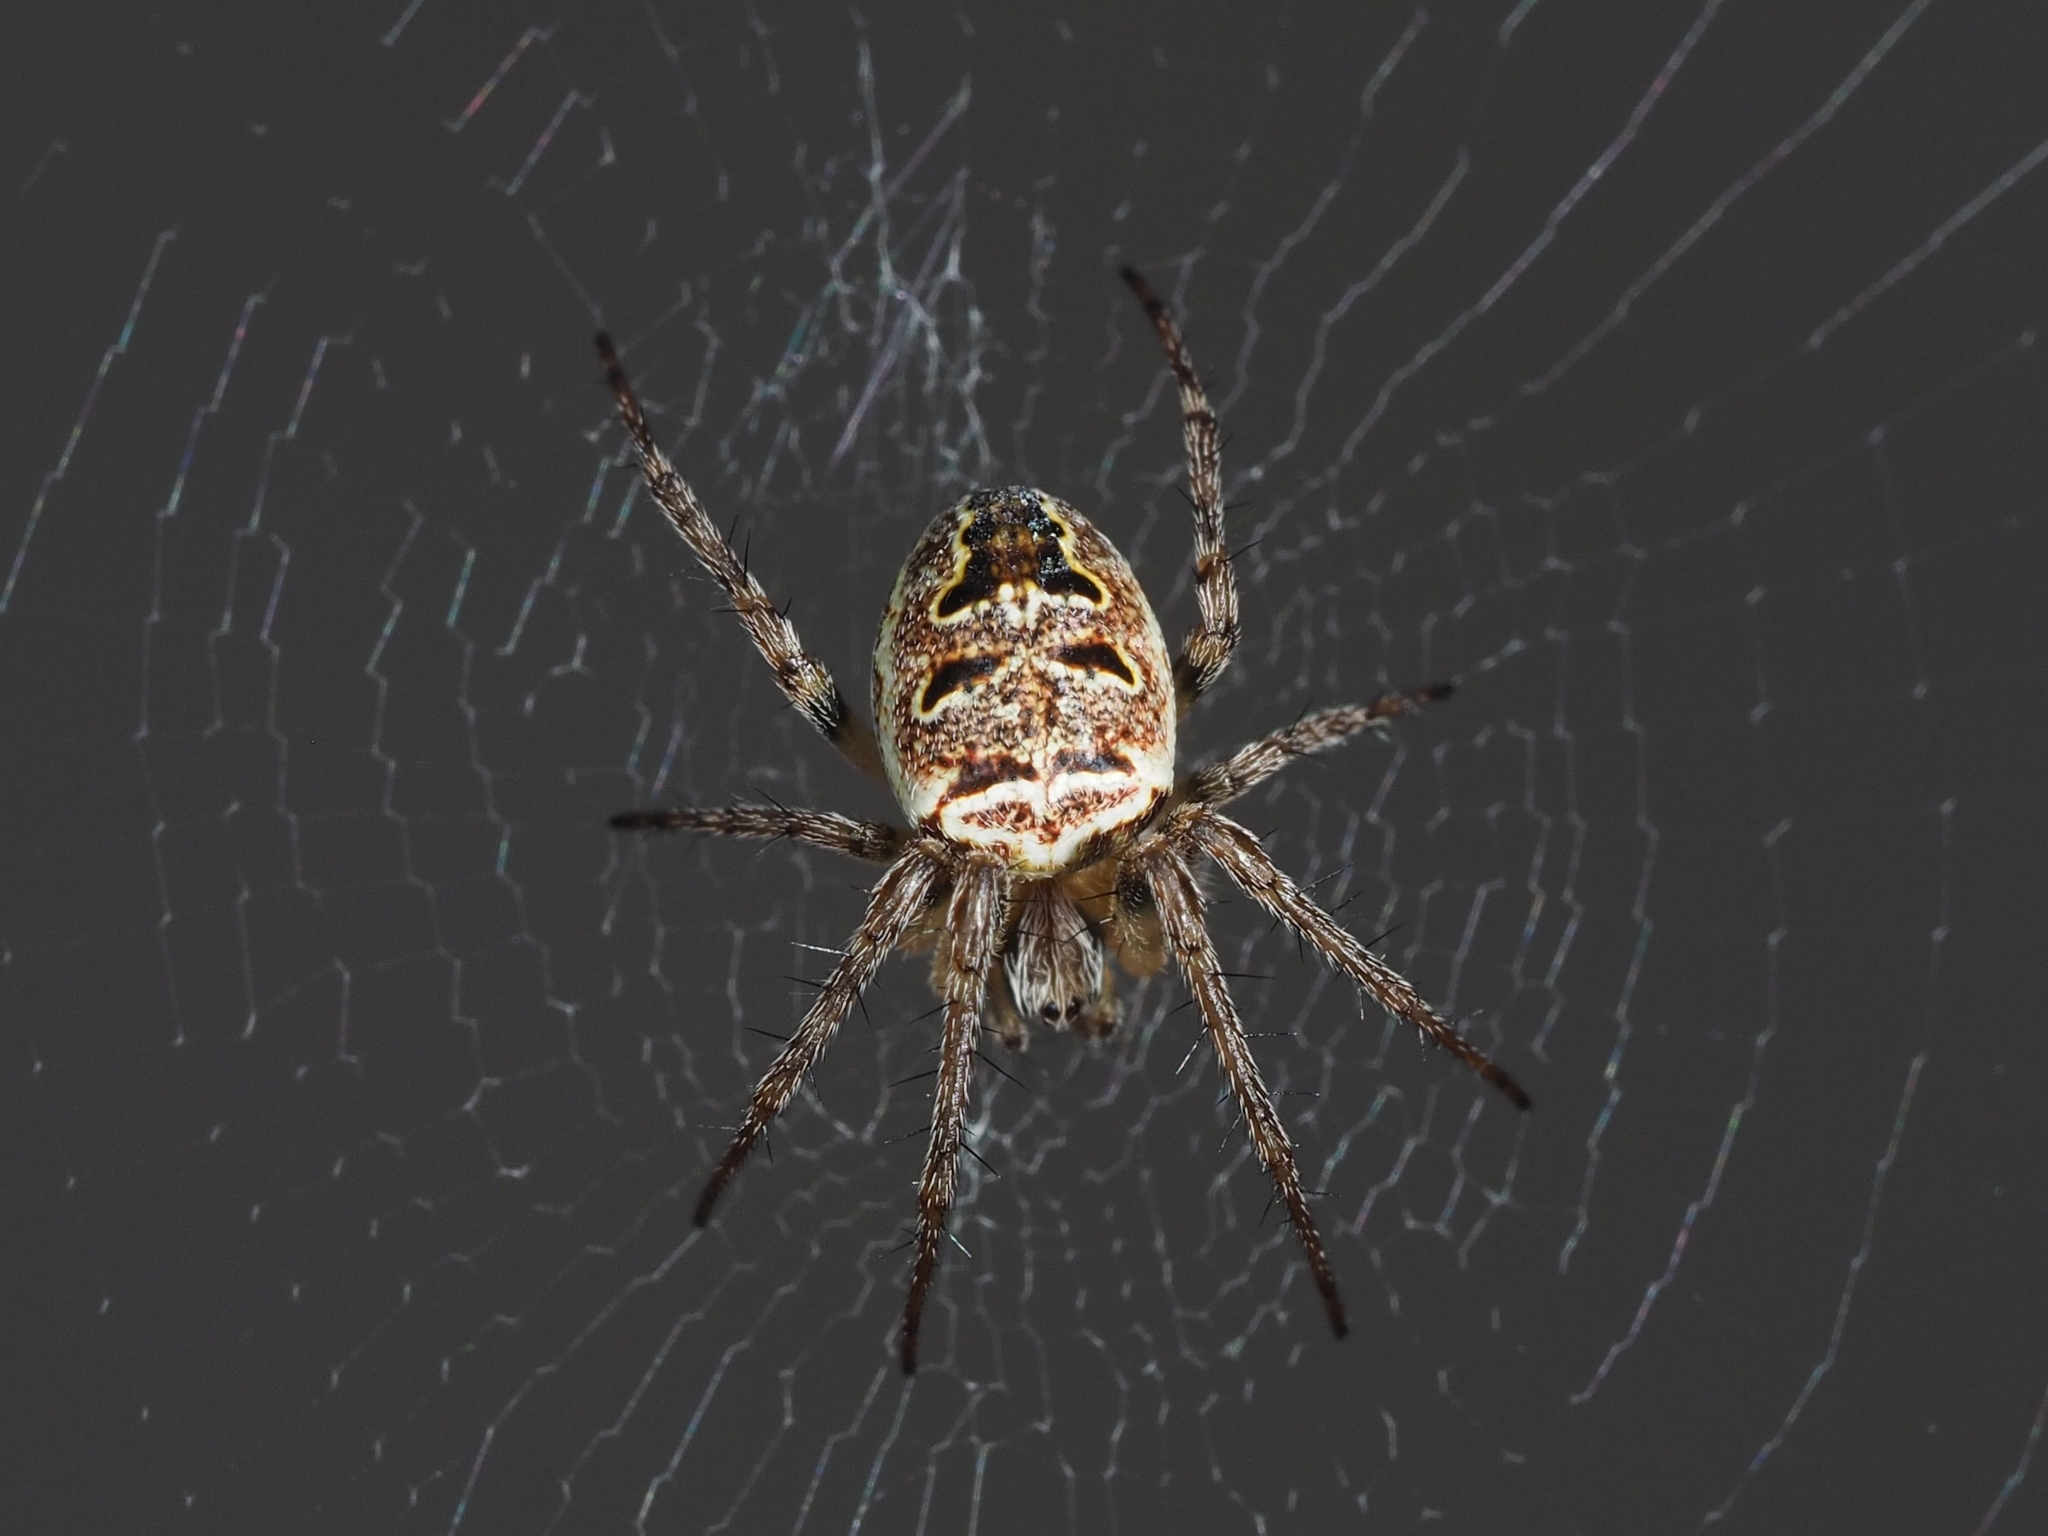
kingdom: Animalia
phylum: Arthropoda
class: Arachnida
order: Araneae
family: Araneidae
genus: Zilla
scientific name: Zilla diodia
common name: Zilla diodia
